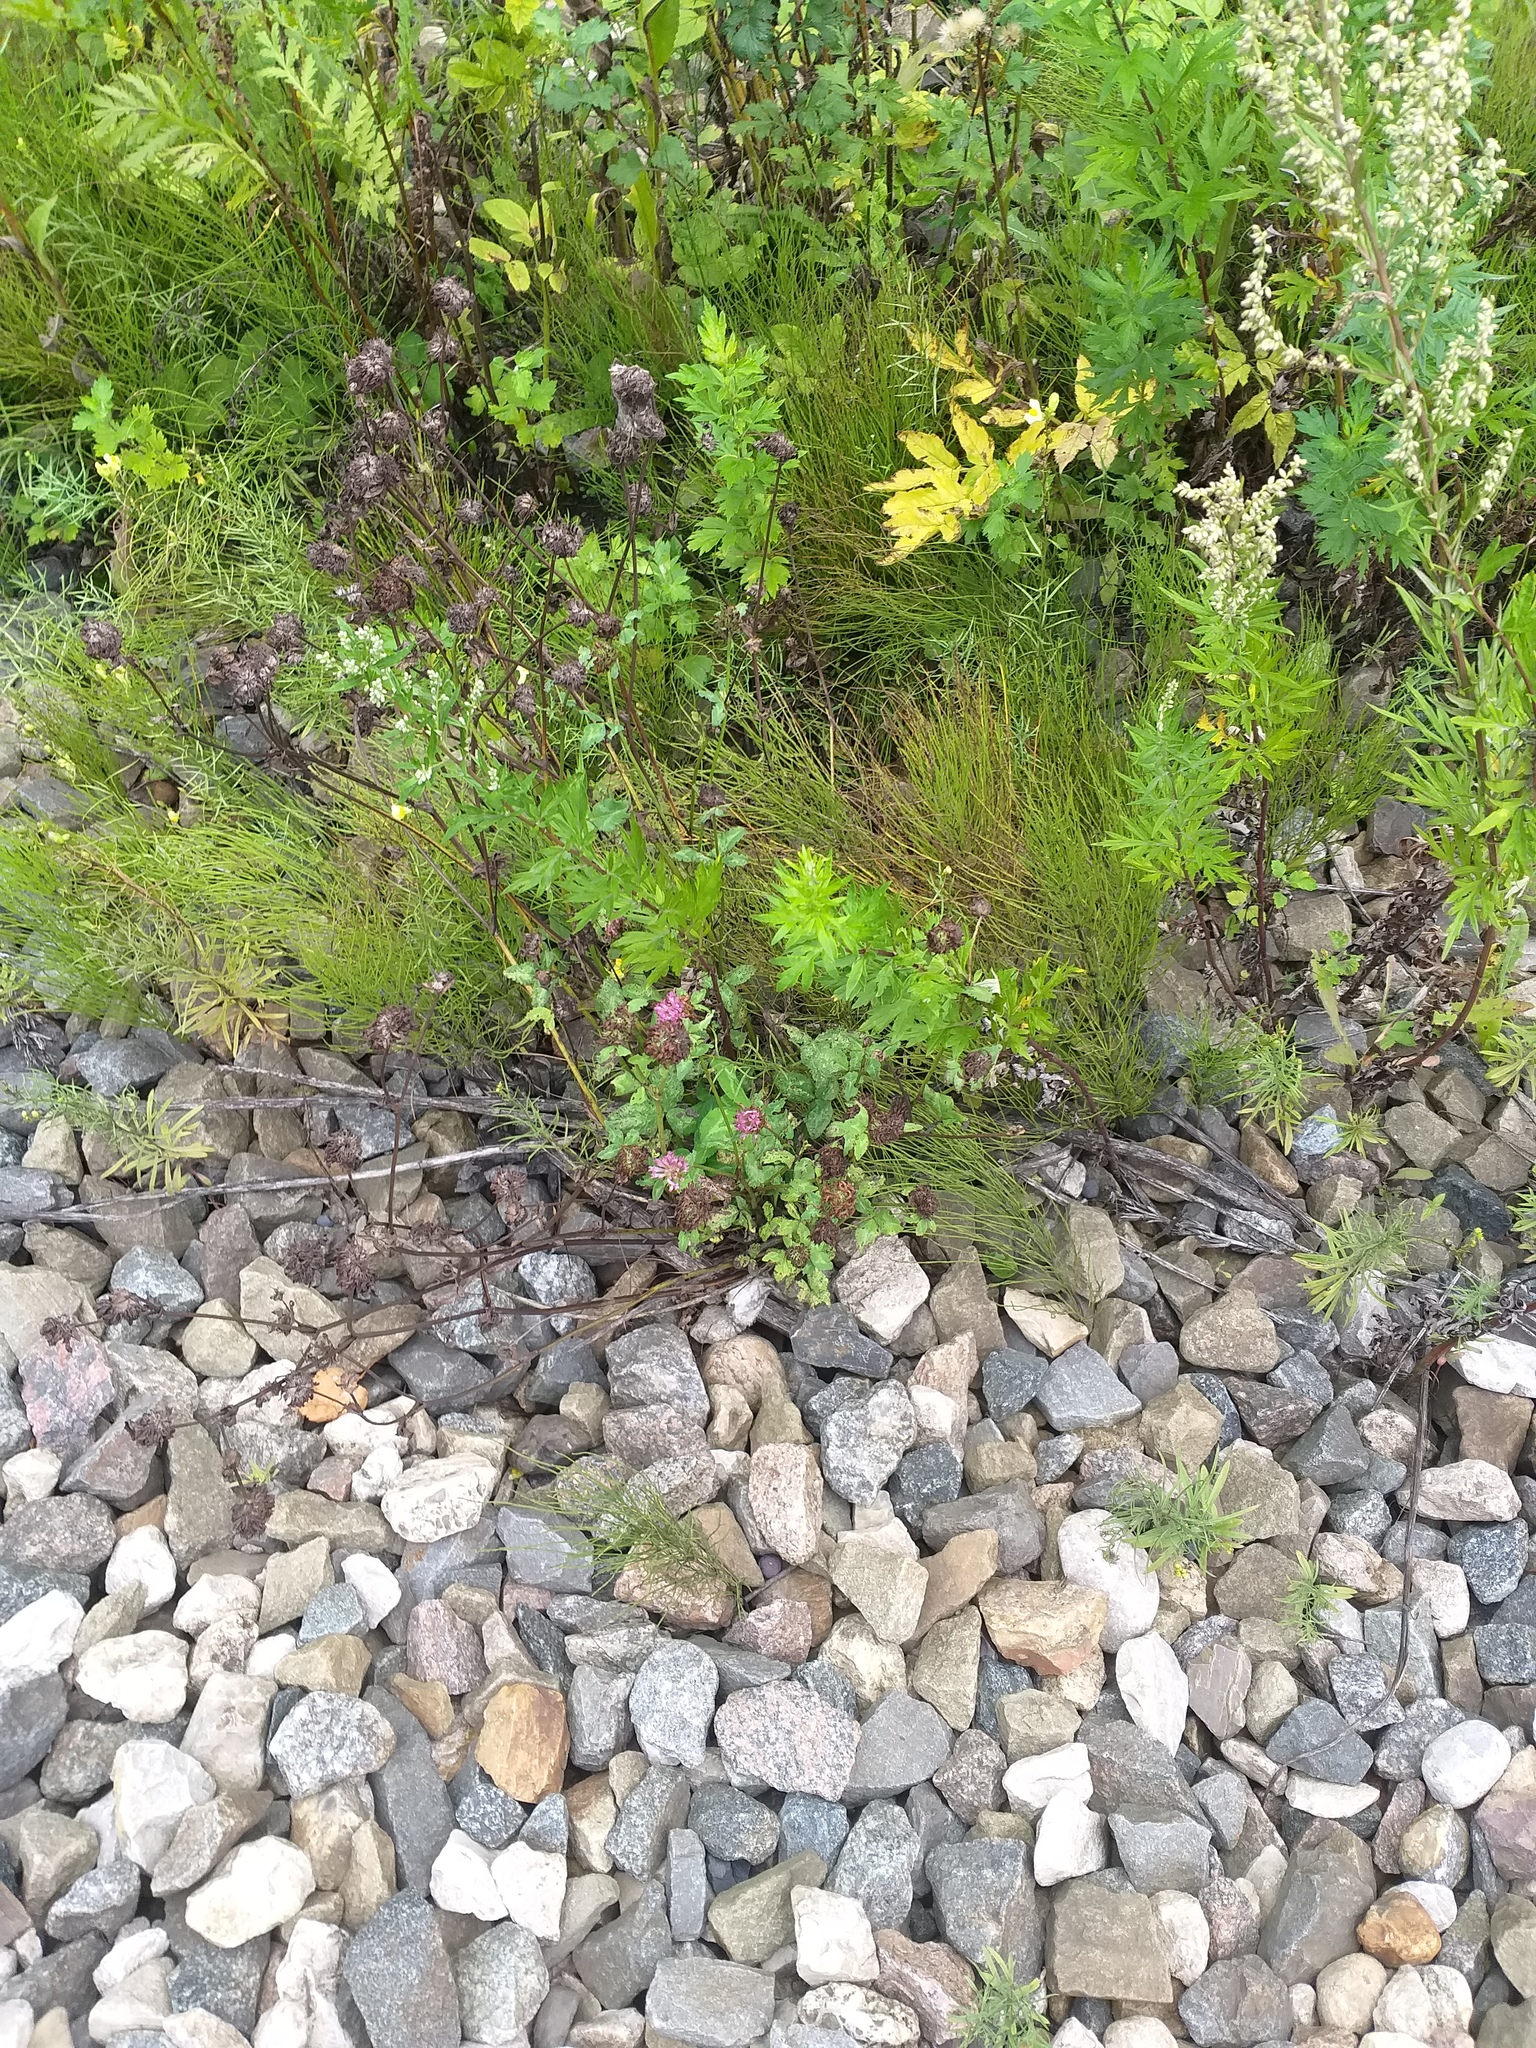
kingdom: Plantae
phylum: Tracheophyta
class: Magnoliopsida
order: Fabales
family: Fabaceae
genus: Trifolium
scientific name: Trifolium pratense
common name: Red clover
